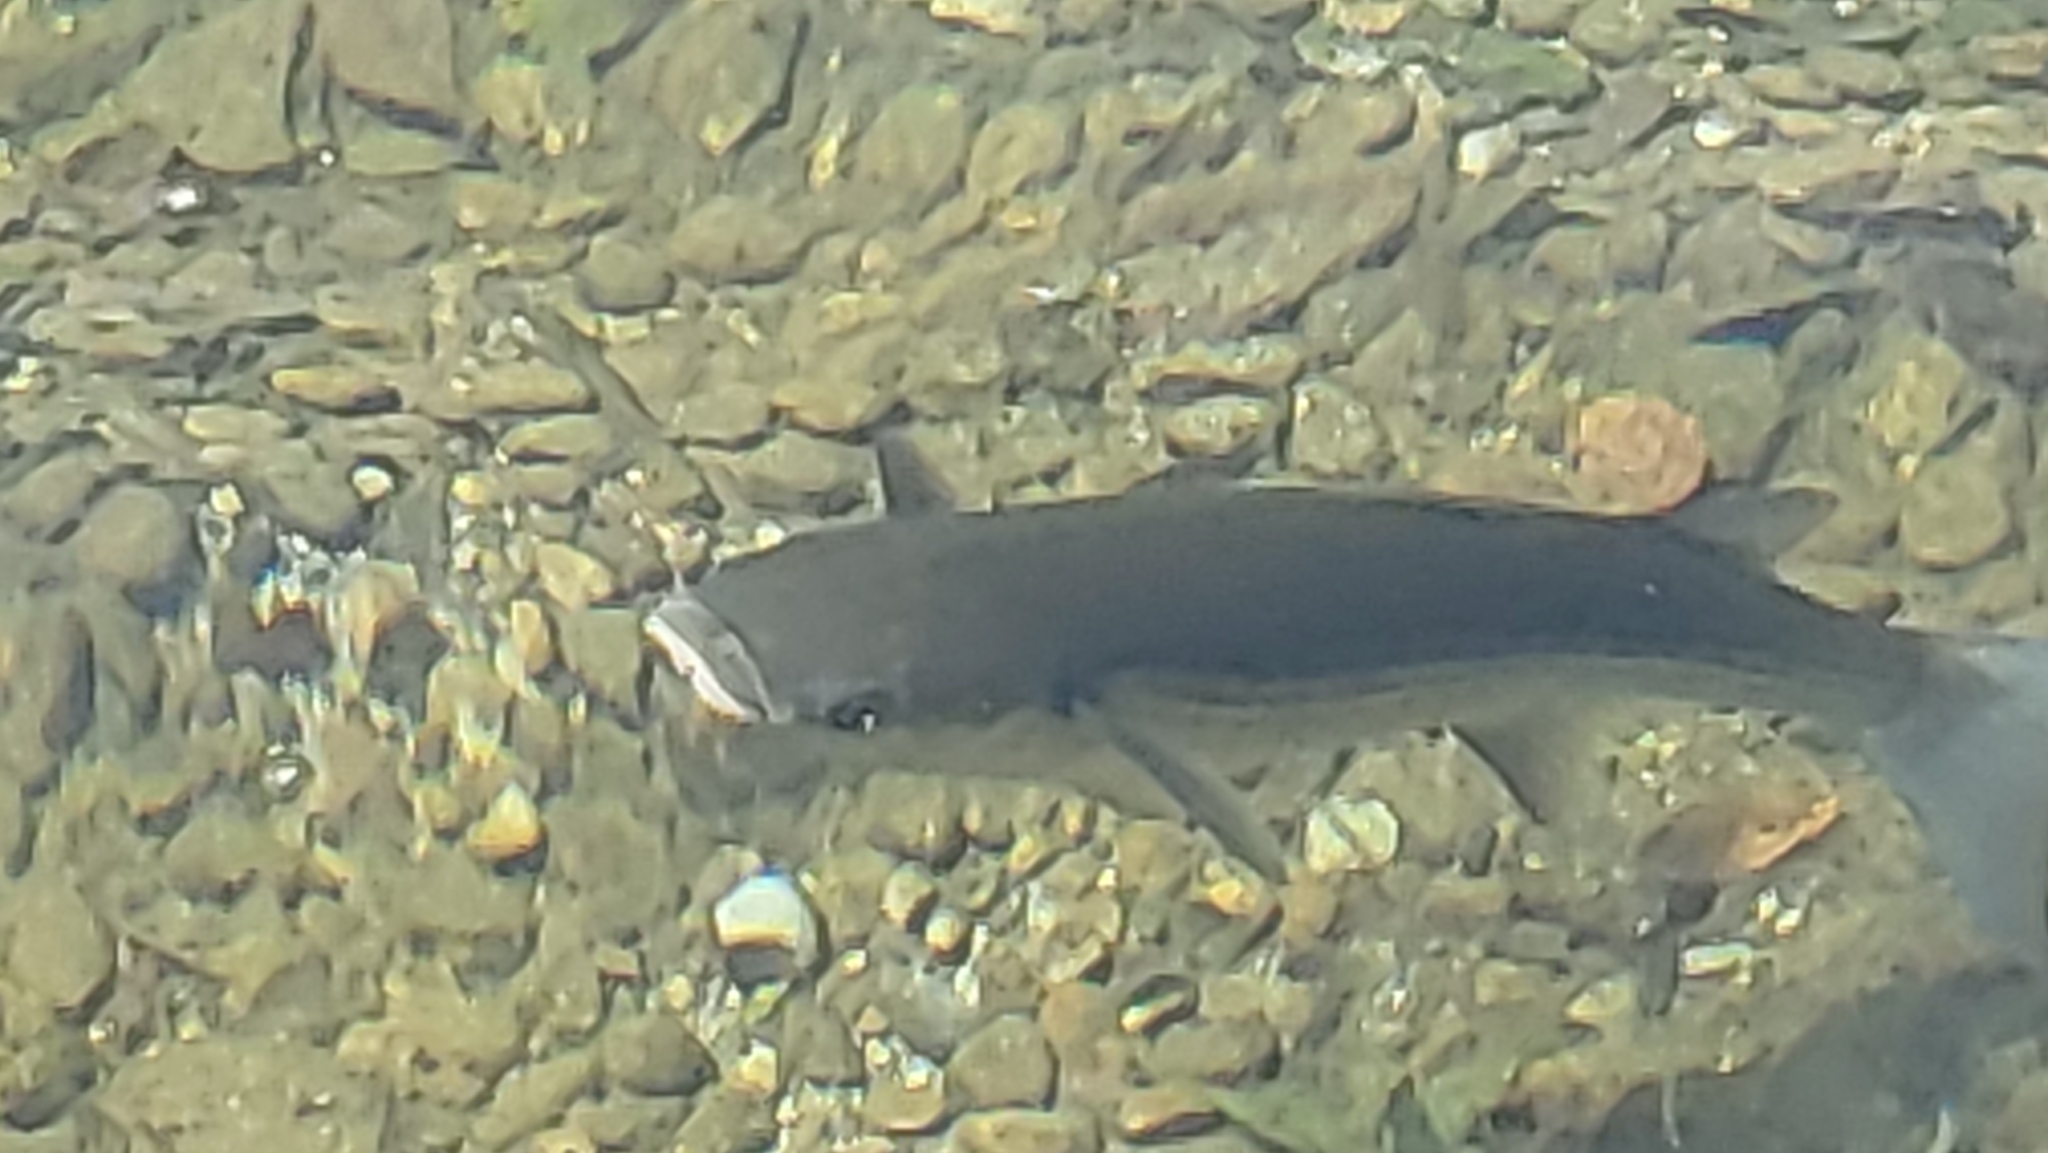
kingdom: Animalia
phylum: Chordata
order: Mugiliformes
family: Mugilidae
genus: Chelon
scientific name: Chelon labrosus
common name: Thick-lipped mullet
